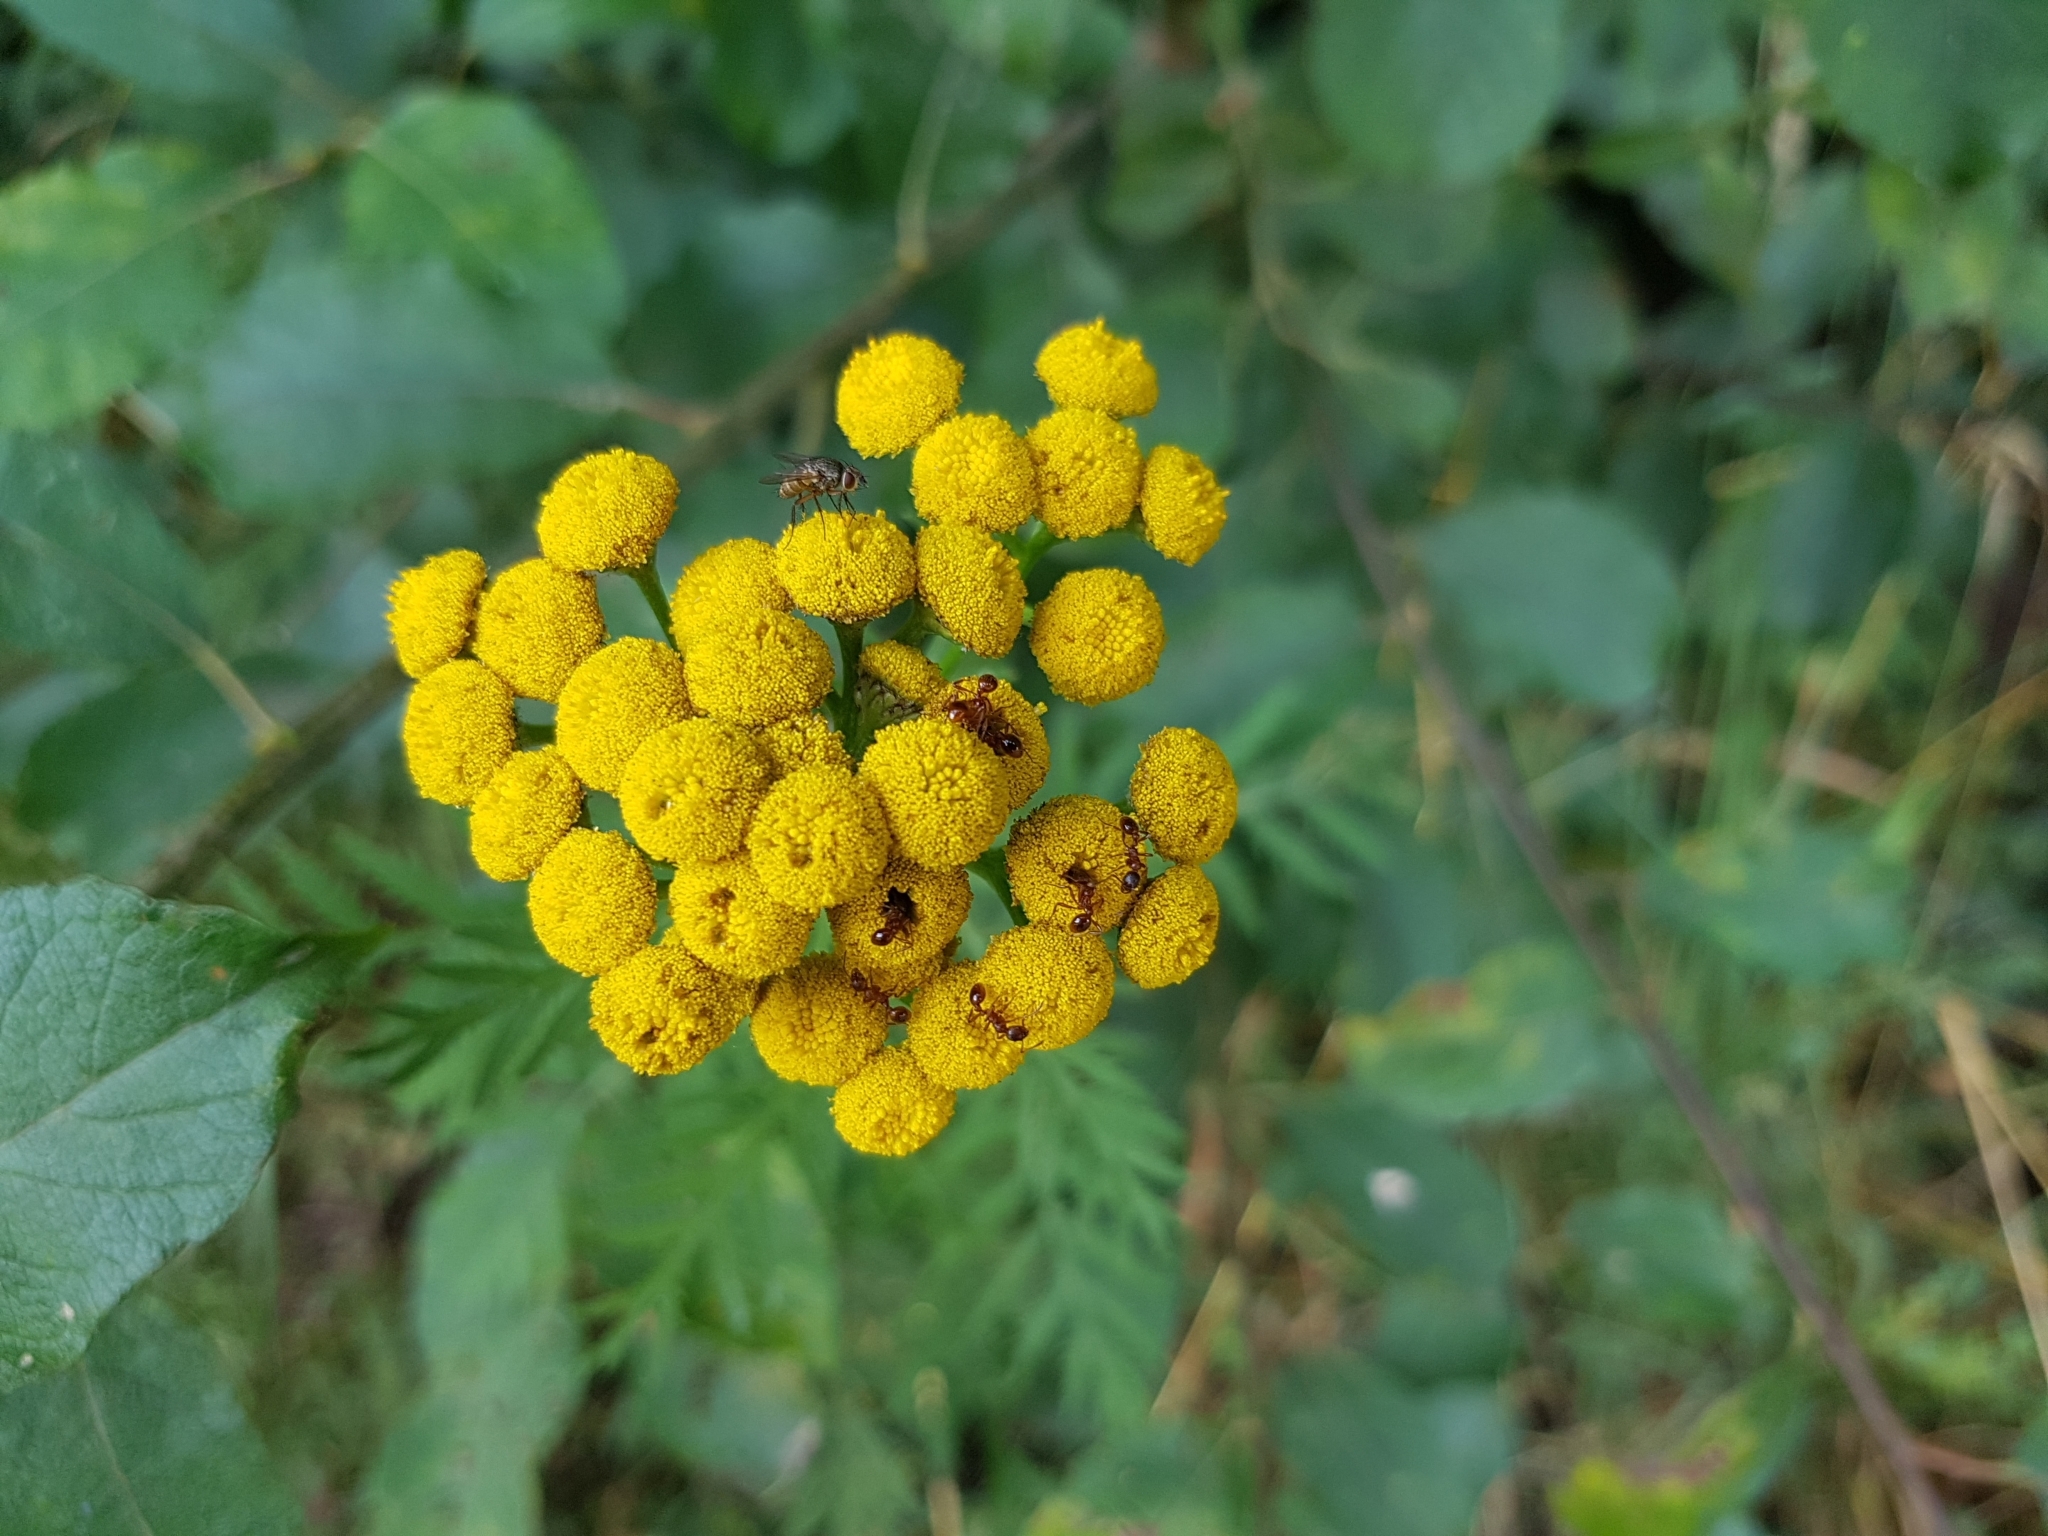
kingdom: Plantae
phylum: Tracheophyta
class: Magnoliopsida
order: Asterales
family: Asteraceae
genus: Tanacetum
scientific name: Tanacetum vulgare
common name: Common tansy
